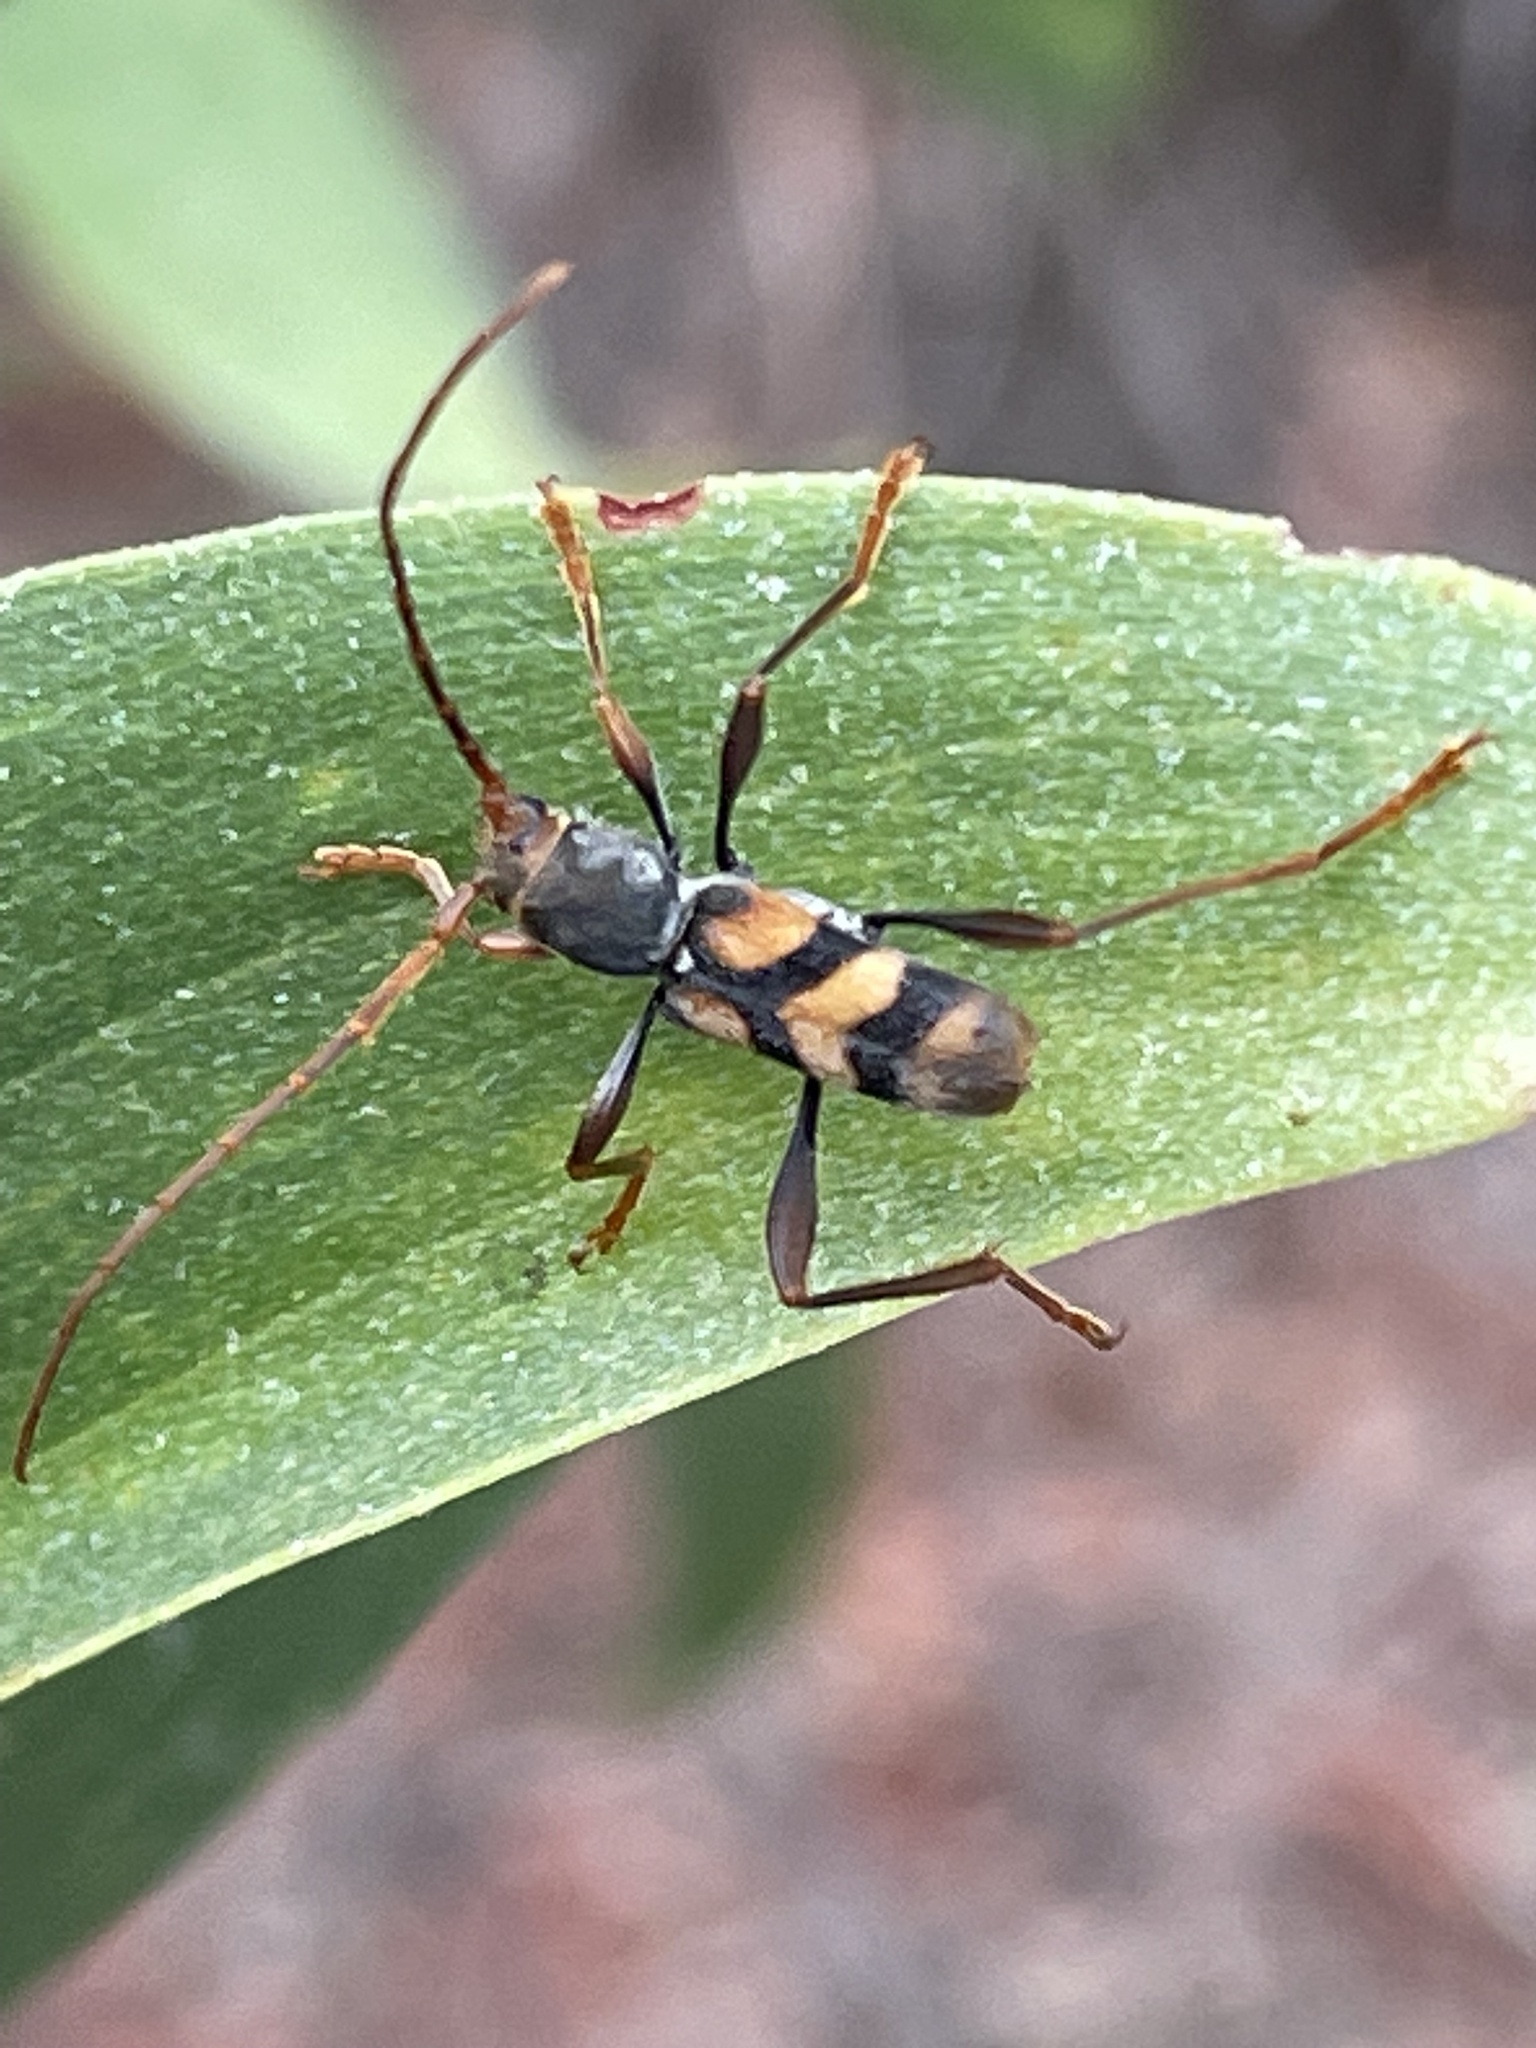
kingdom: Animalia
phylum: Arthropoda
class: Insecta
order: Coleoptera
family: Cerambycidae
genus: Aridaeus
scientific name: Aridaeus thoracicus
